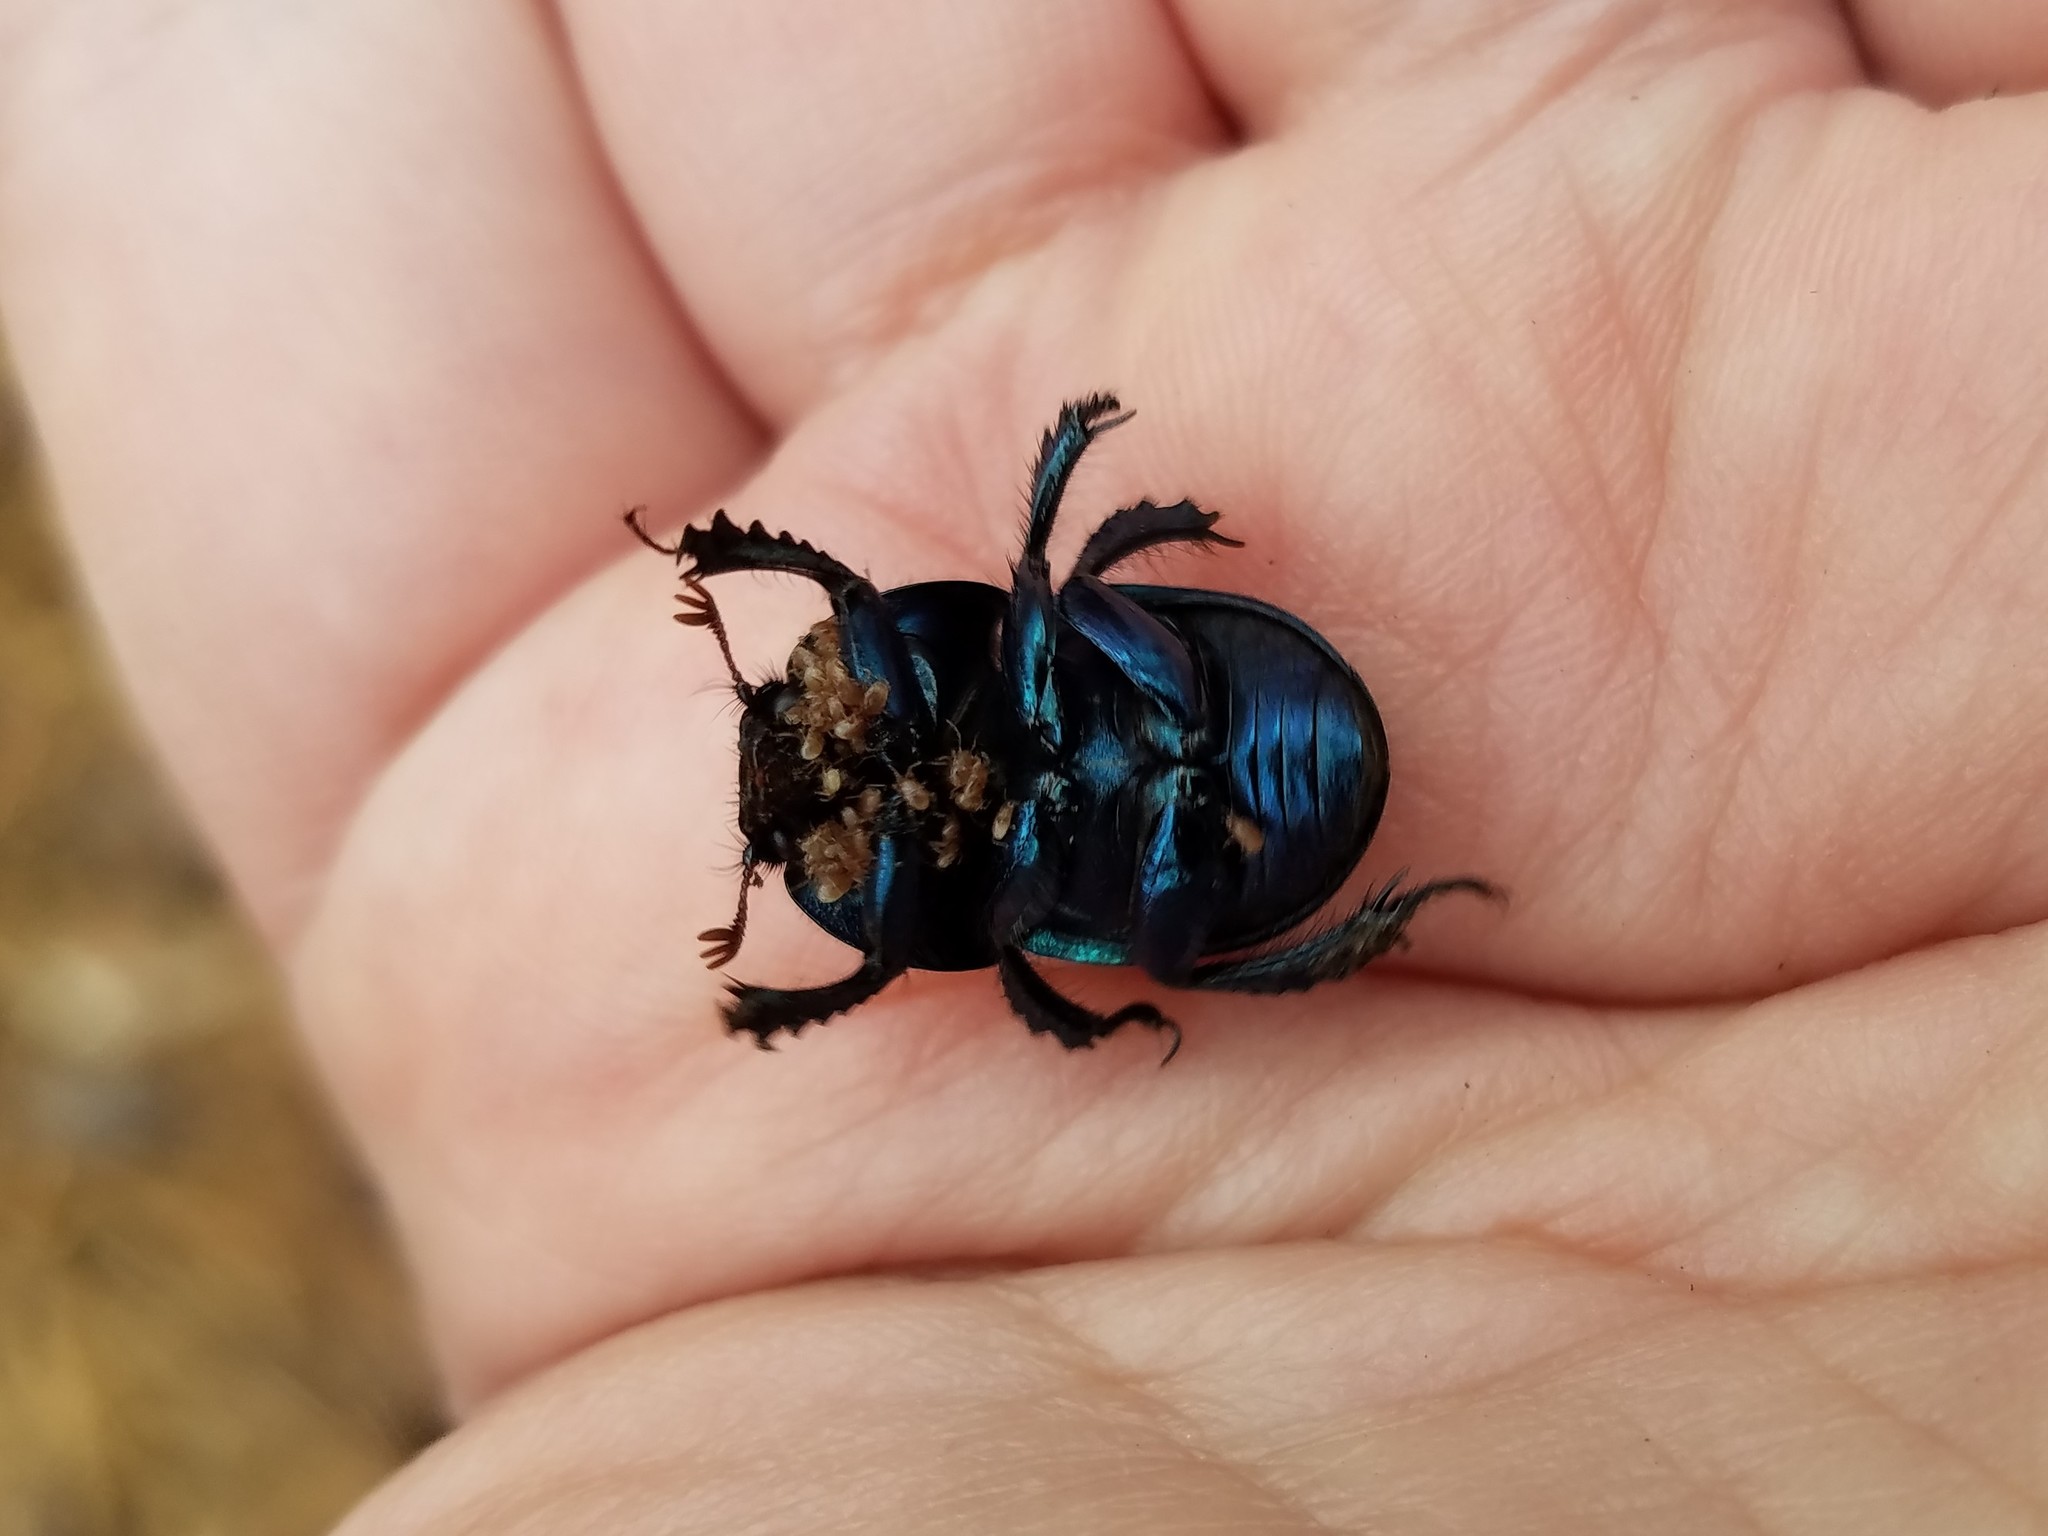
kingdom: Animalia
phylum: Arthropoda
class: Insecta
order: Coleoptera
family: Geotrupidae
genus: Geotrupes
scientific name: Geotrupes splendidus
